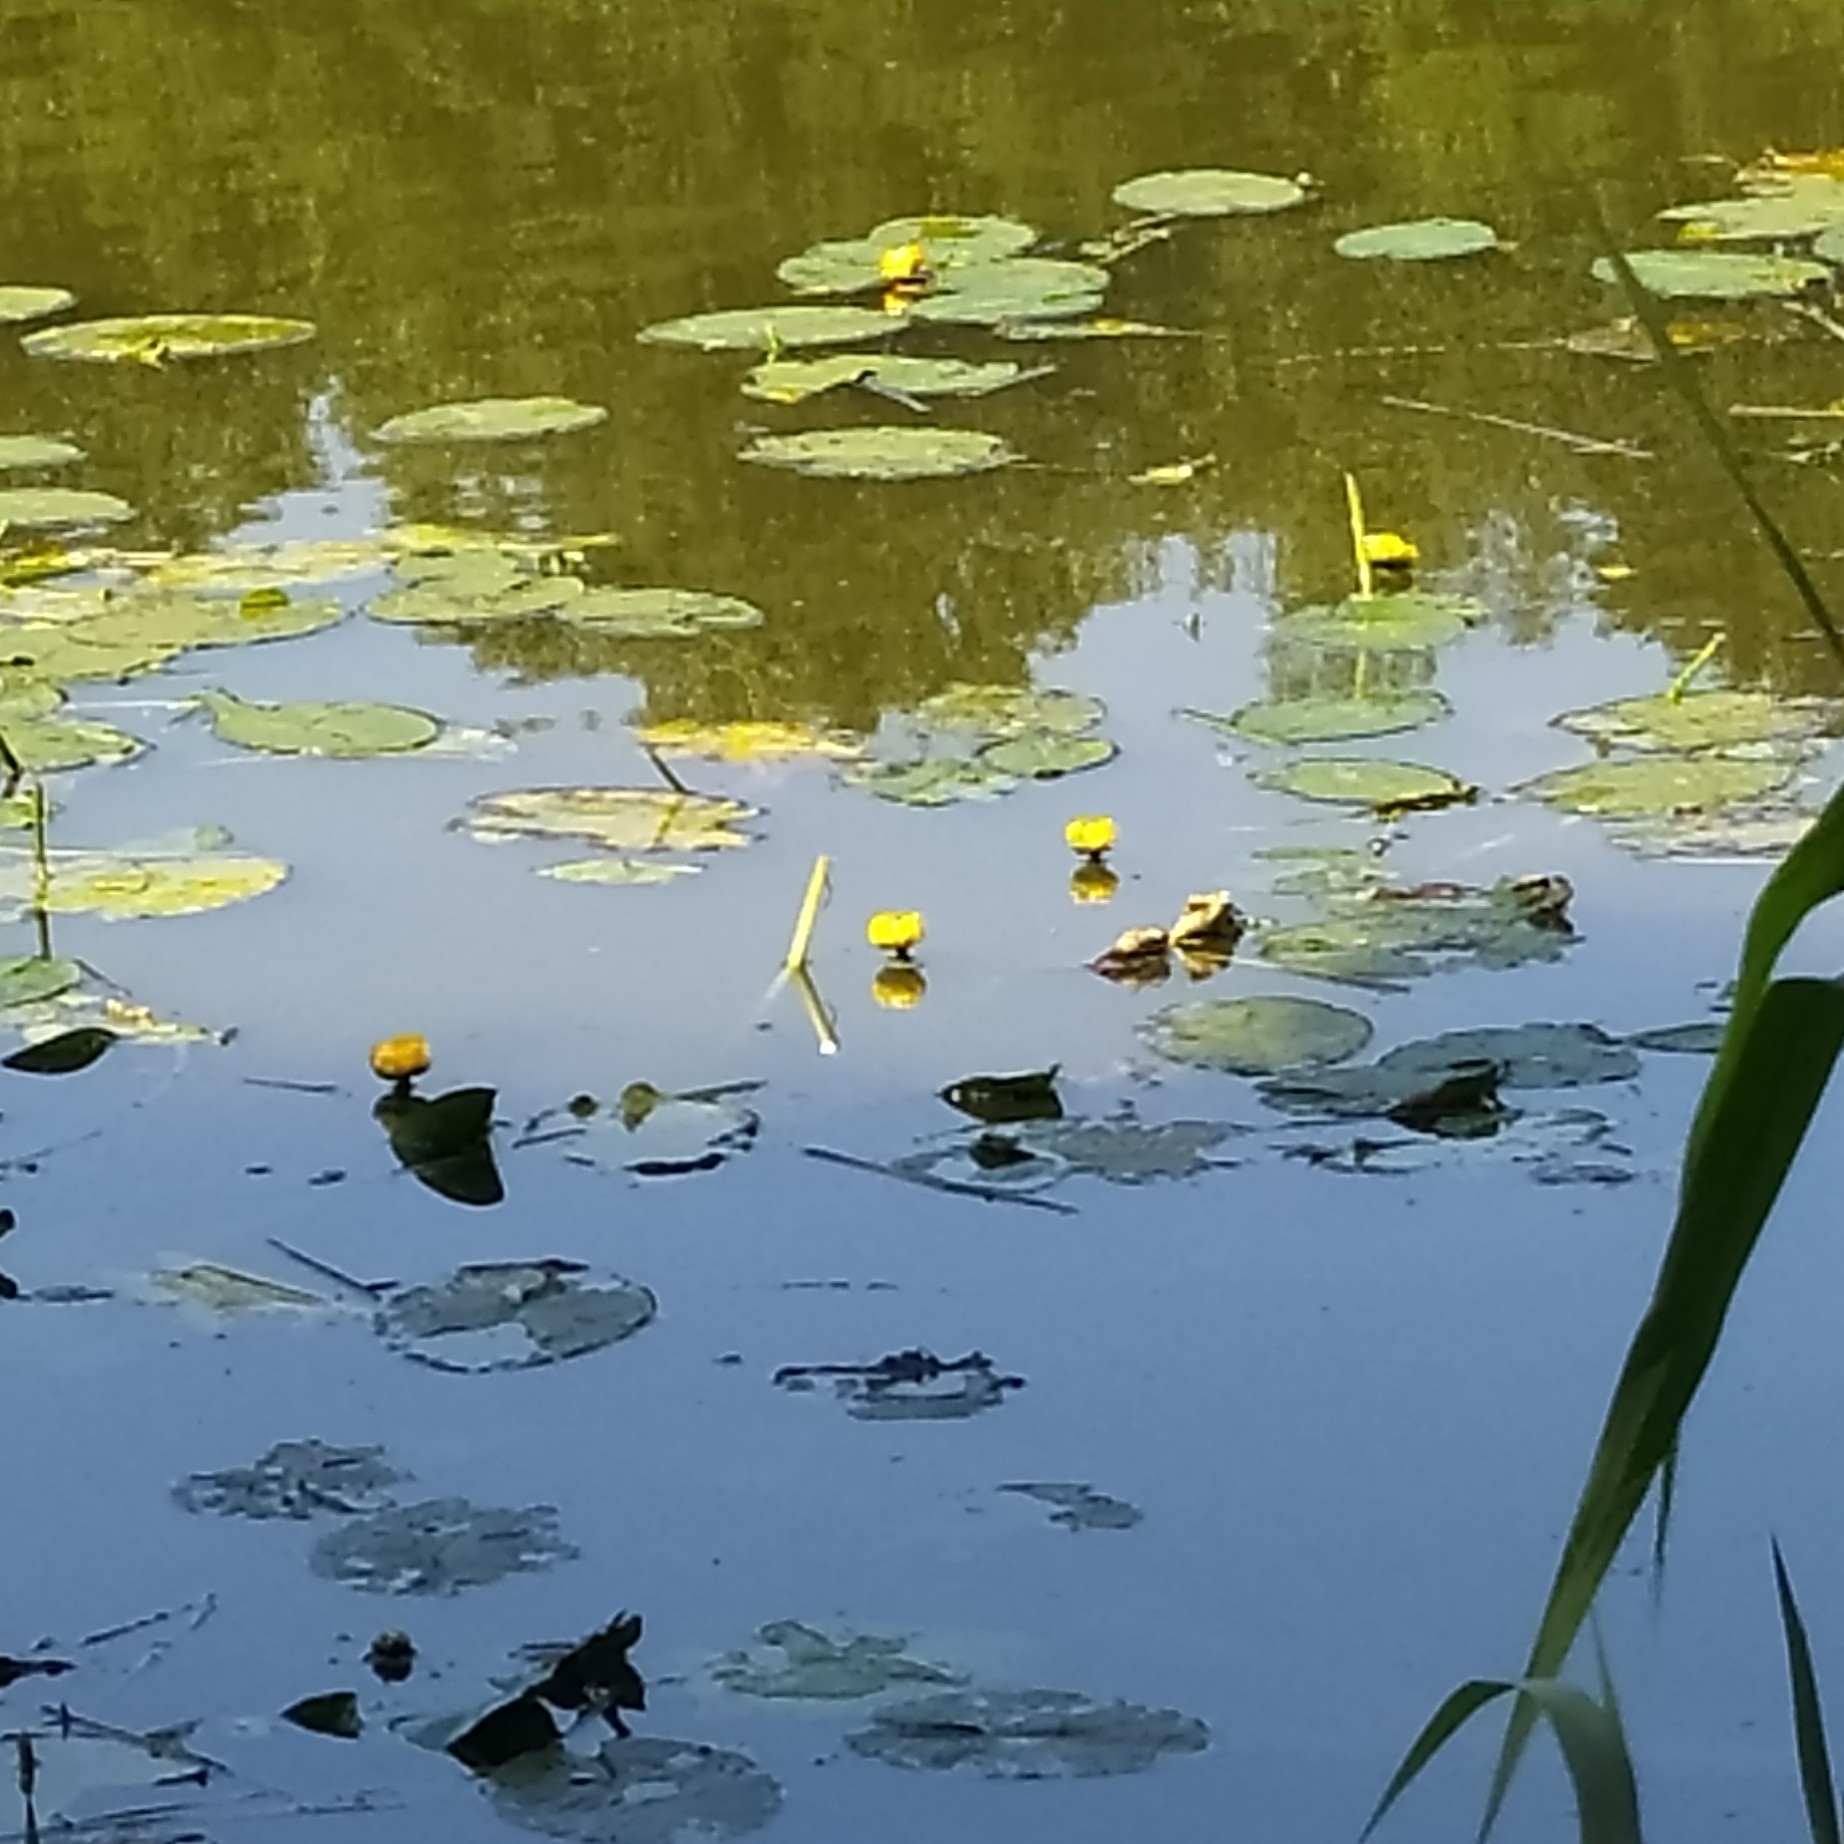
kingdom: Plantae
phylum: Tracheophyta
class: Magnoliopsida
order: Nymphaeales
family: Nymphaeaceae
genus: Nuphar
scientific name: Nuphar lutea
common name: Yellow water-lily
